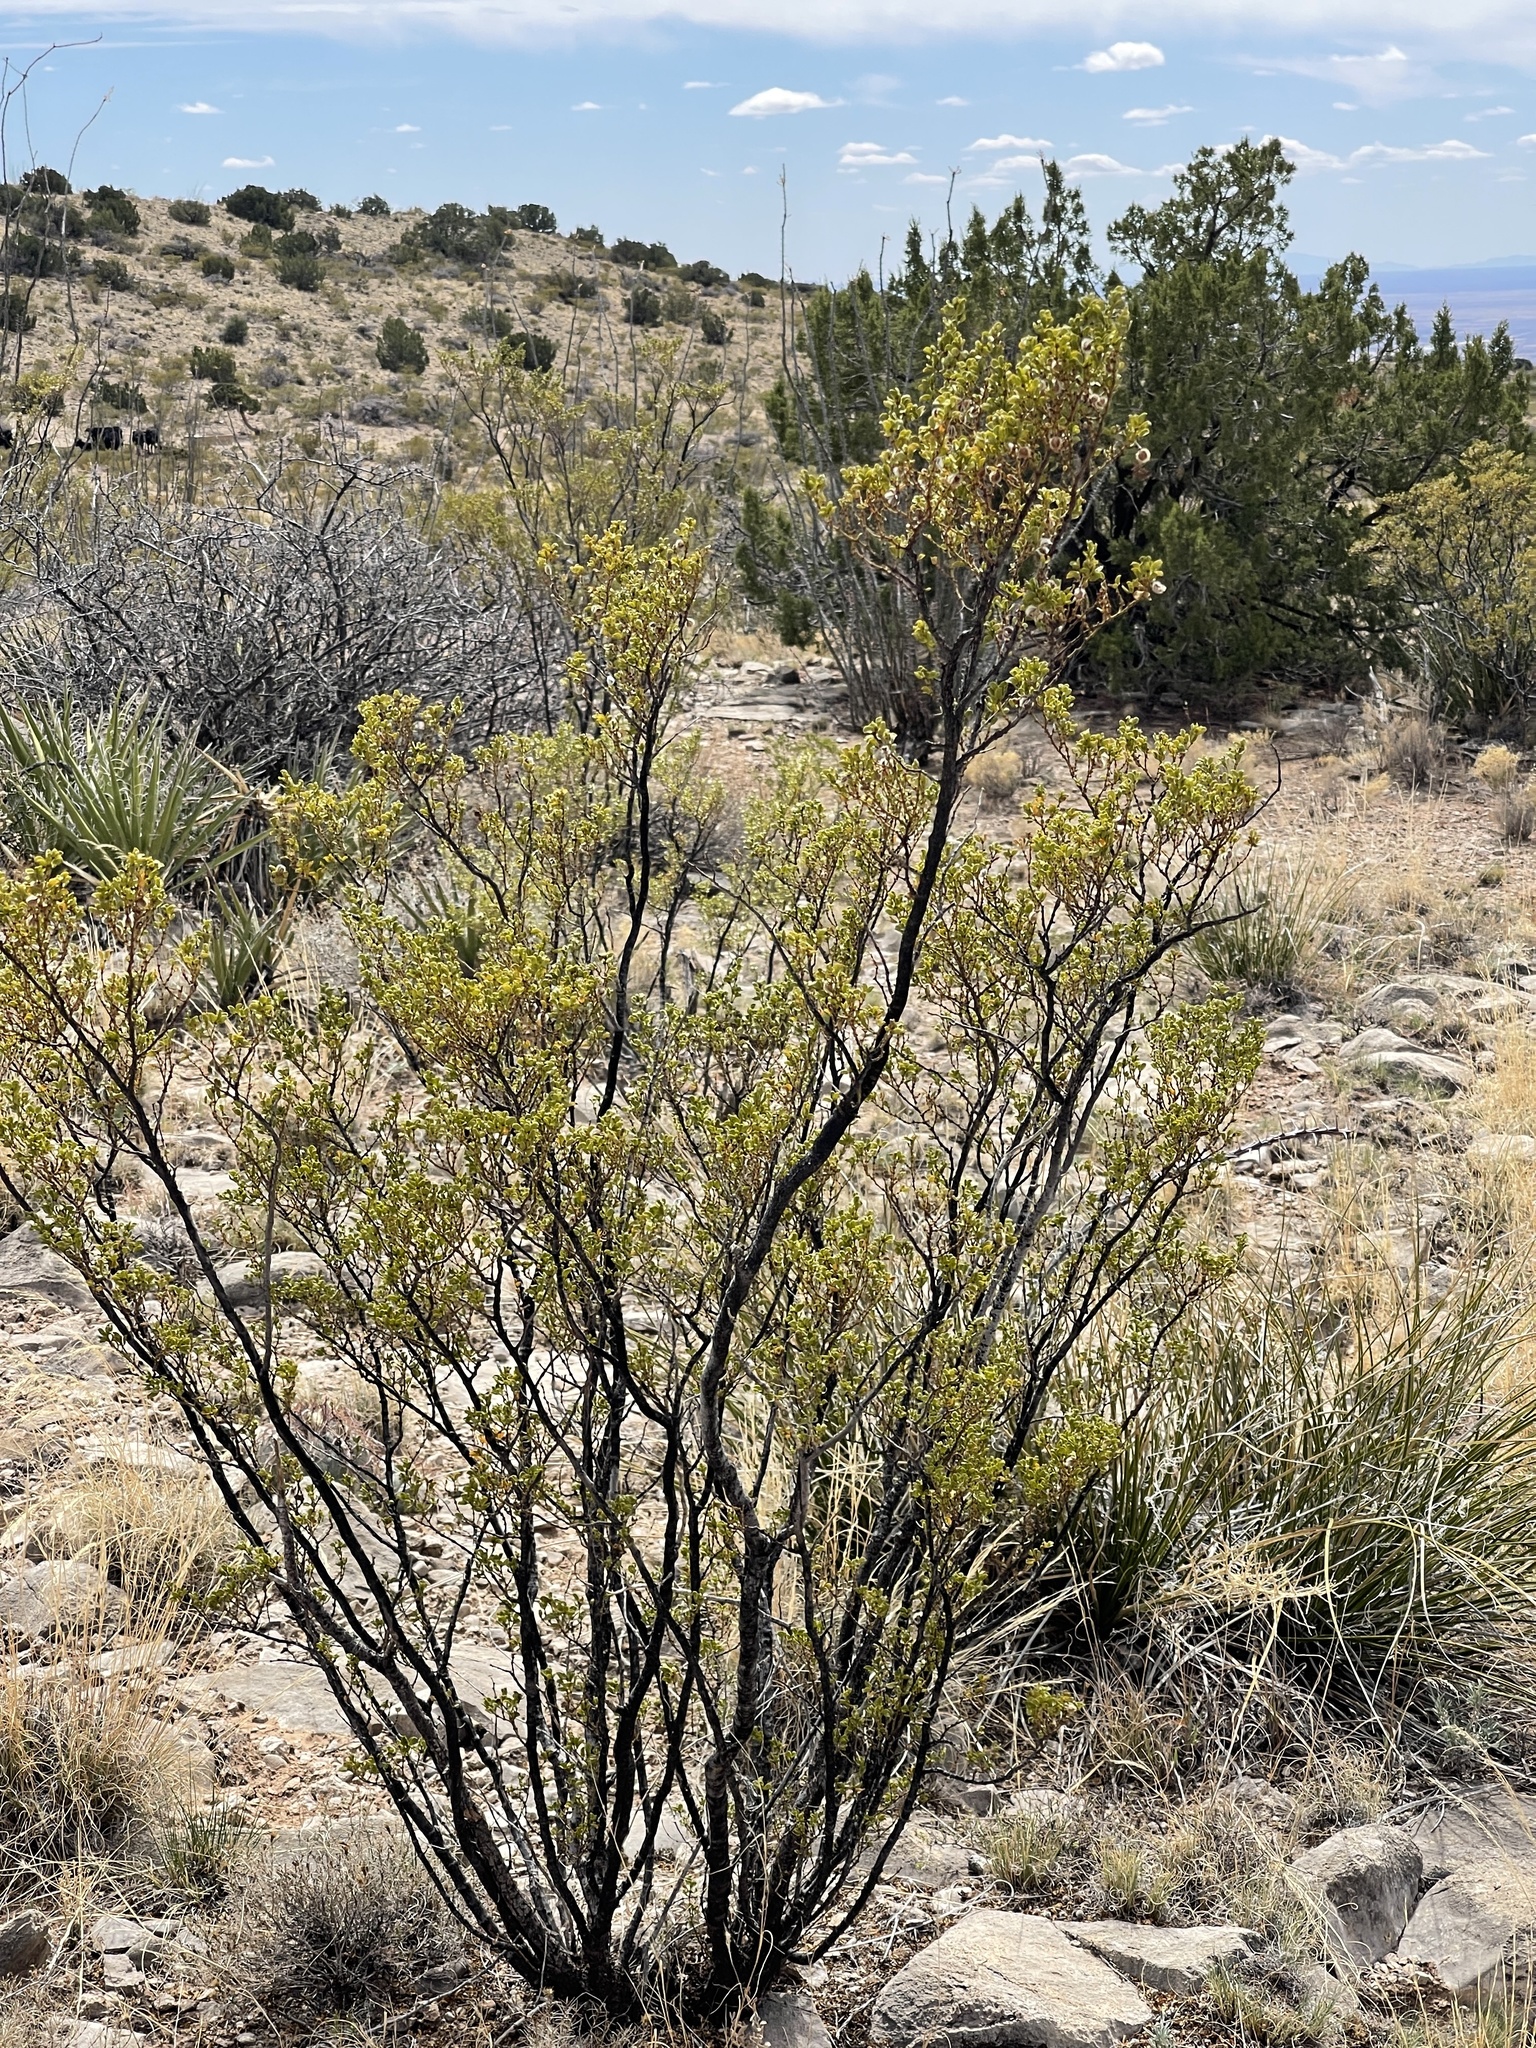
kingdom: Plantae
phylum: Tracheophyta
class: Magnoliopsida
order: Zygophyllales
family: Zygophyllaceae
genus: Larrea
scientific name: Larrea tridentata
